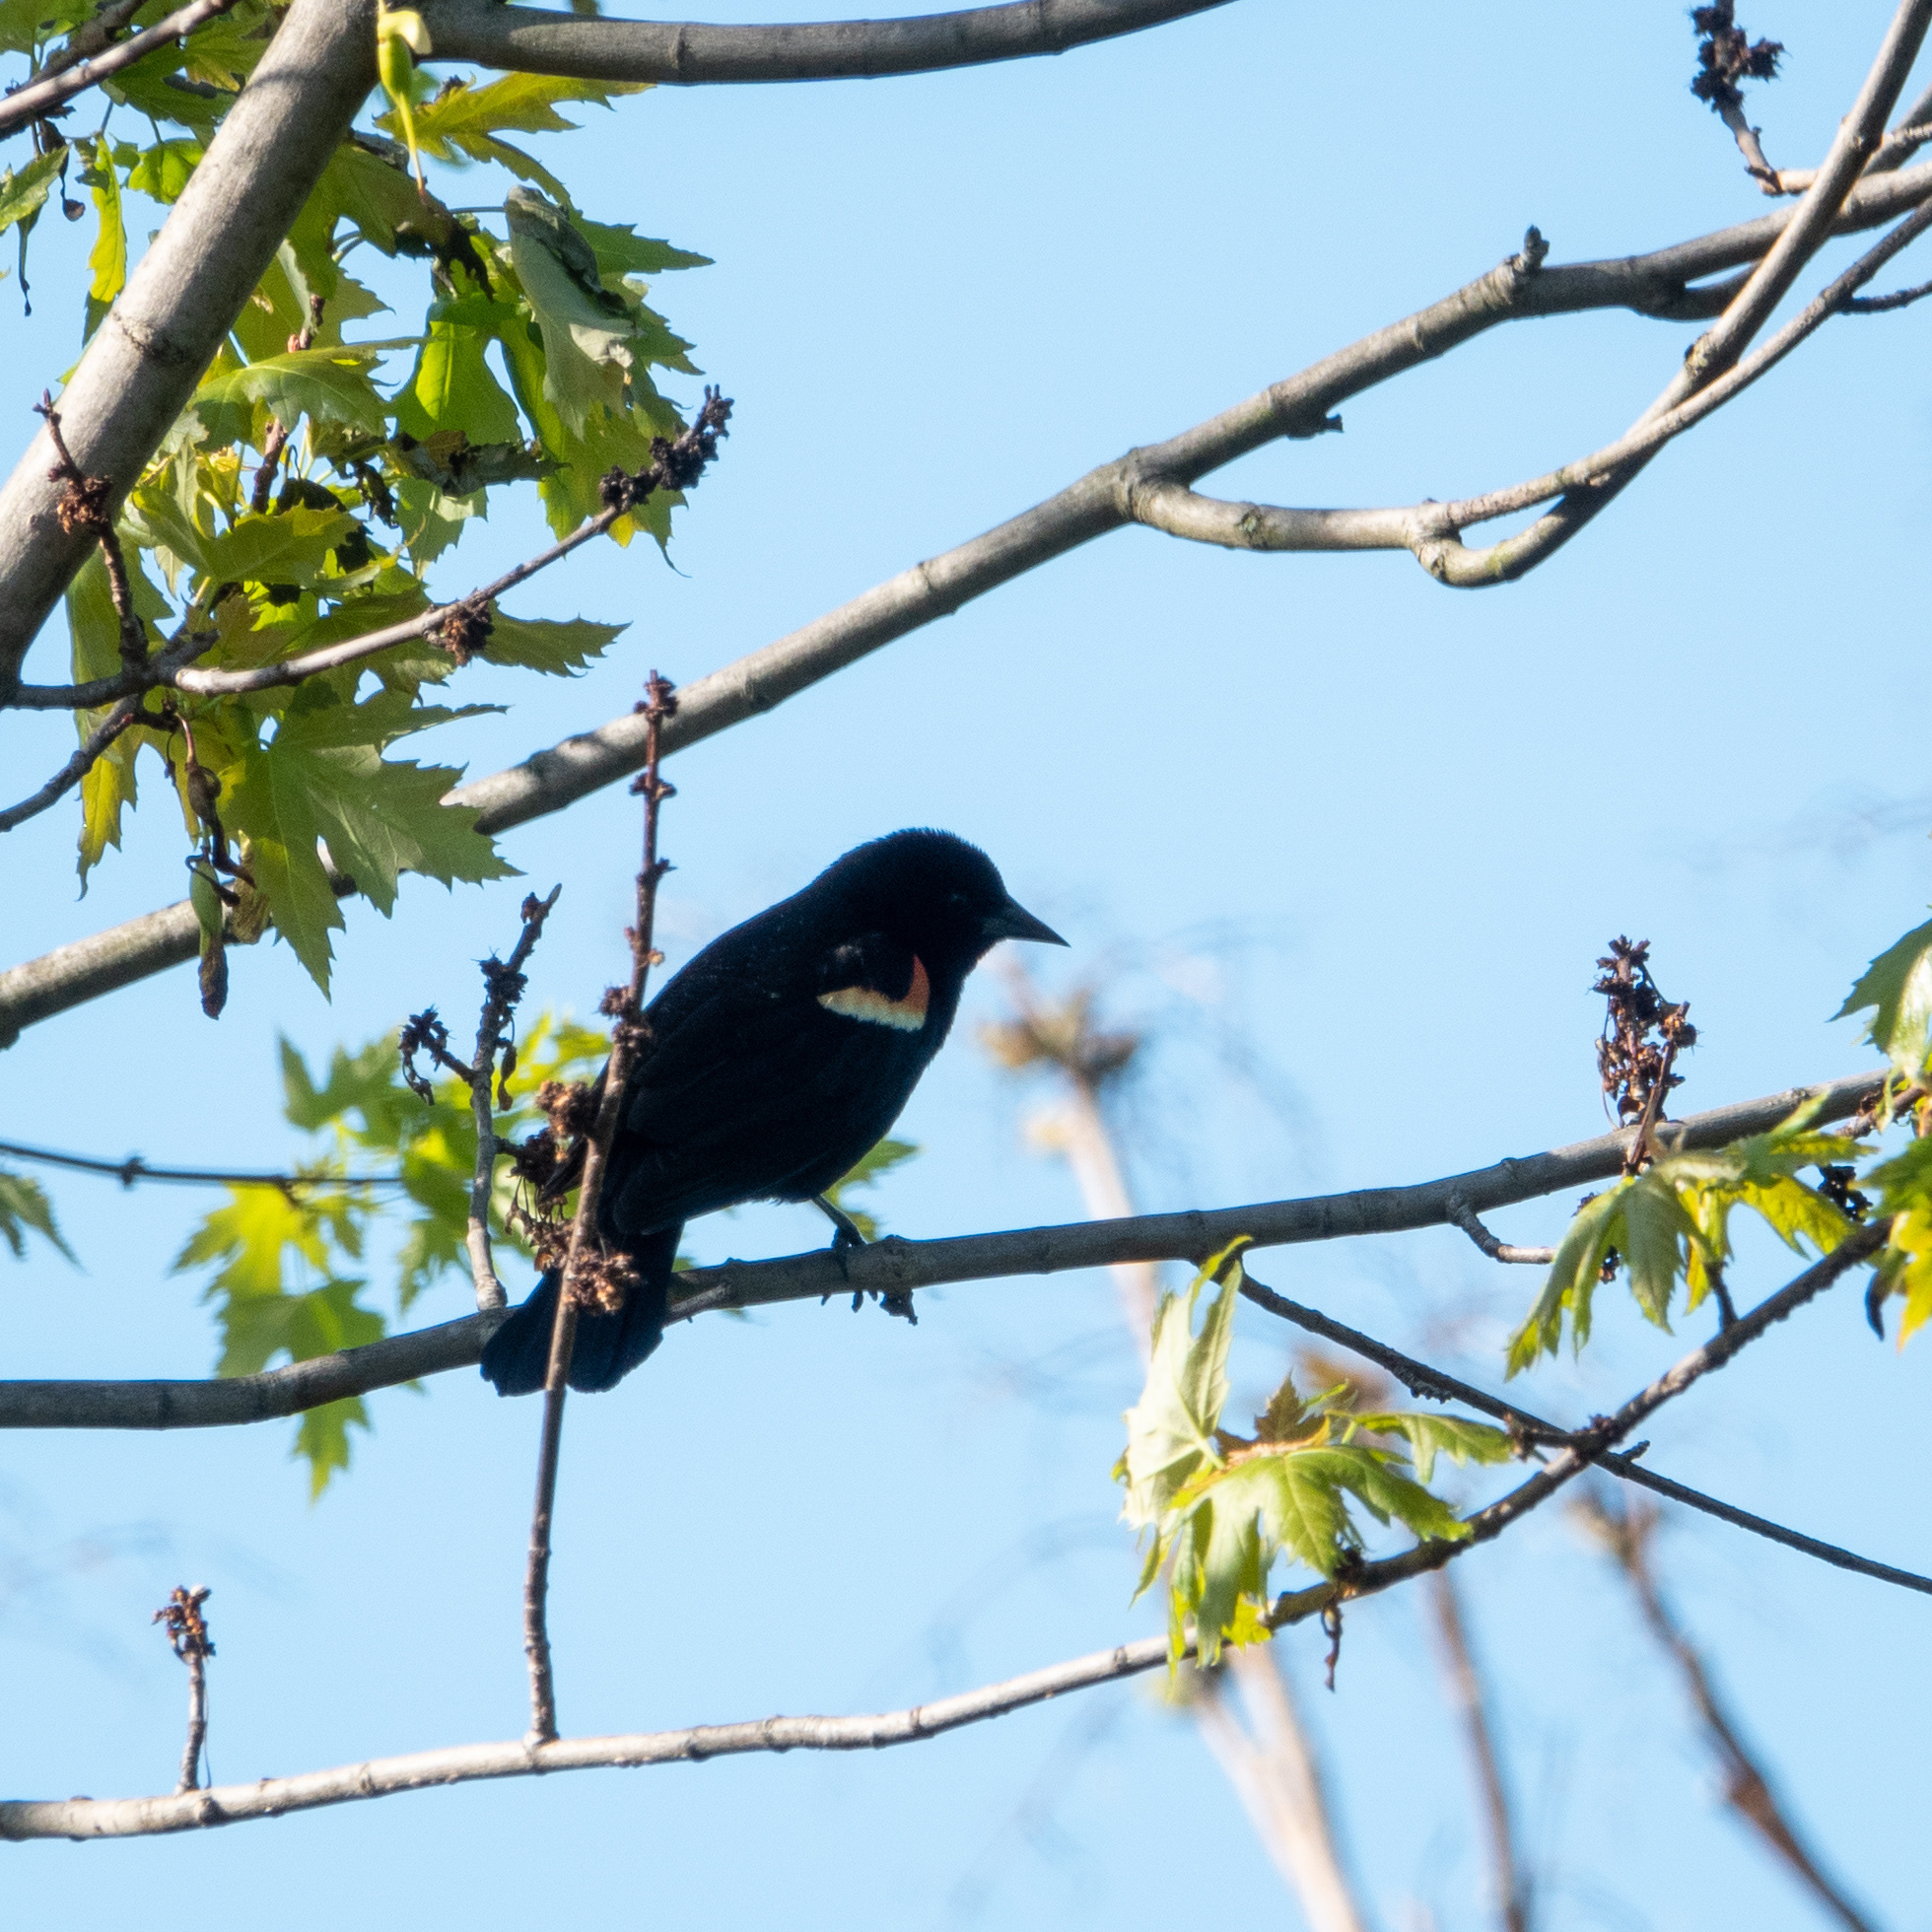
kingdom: Animalia
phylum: Chordata
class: Aves
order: Passeriformes
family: Icteridae
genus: Agelaius
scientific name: Agelaius phoeniceus
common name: Red-winged blackbird
